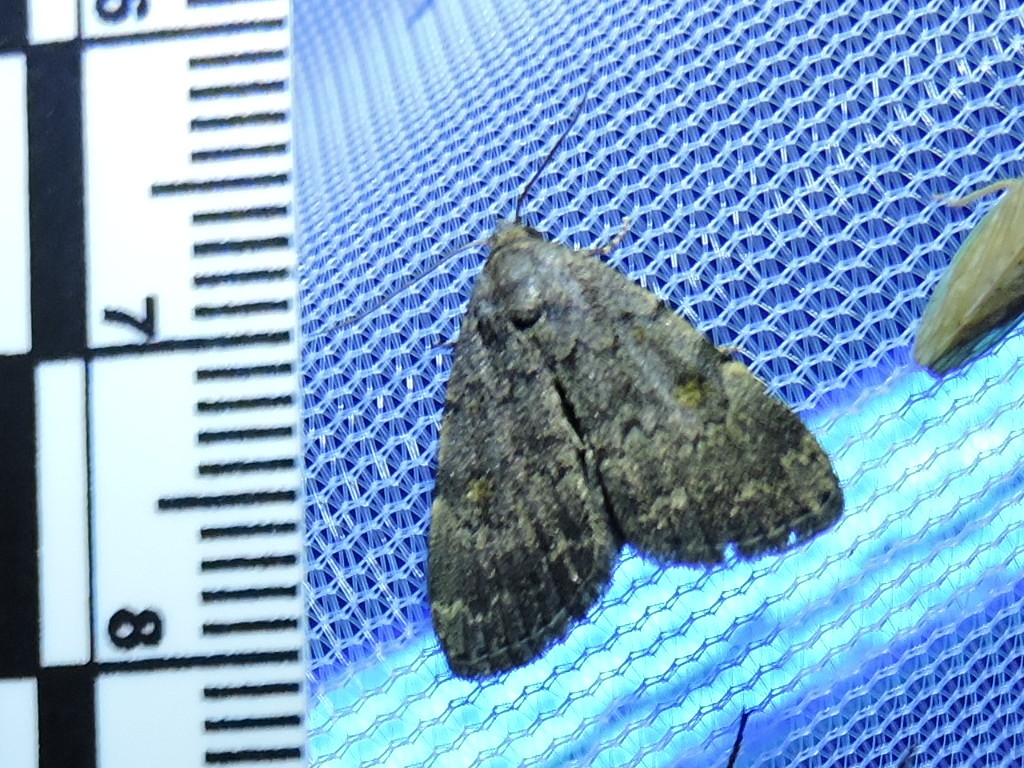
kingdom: Animalia
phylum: Arthropoda
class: Insecta
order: Lepidoptera
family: Erebidae
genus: Idia
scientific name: Idia aemula
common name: Common idia moth
